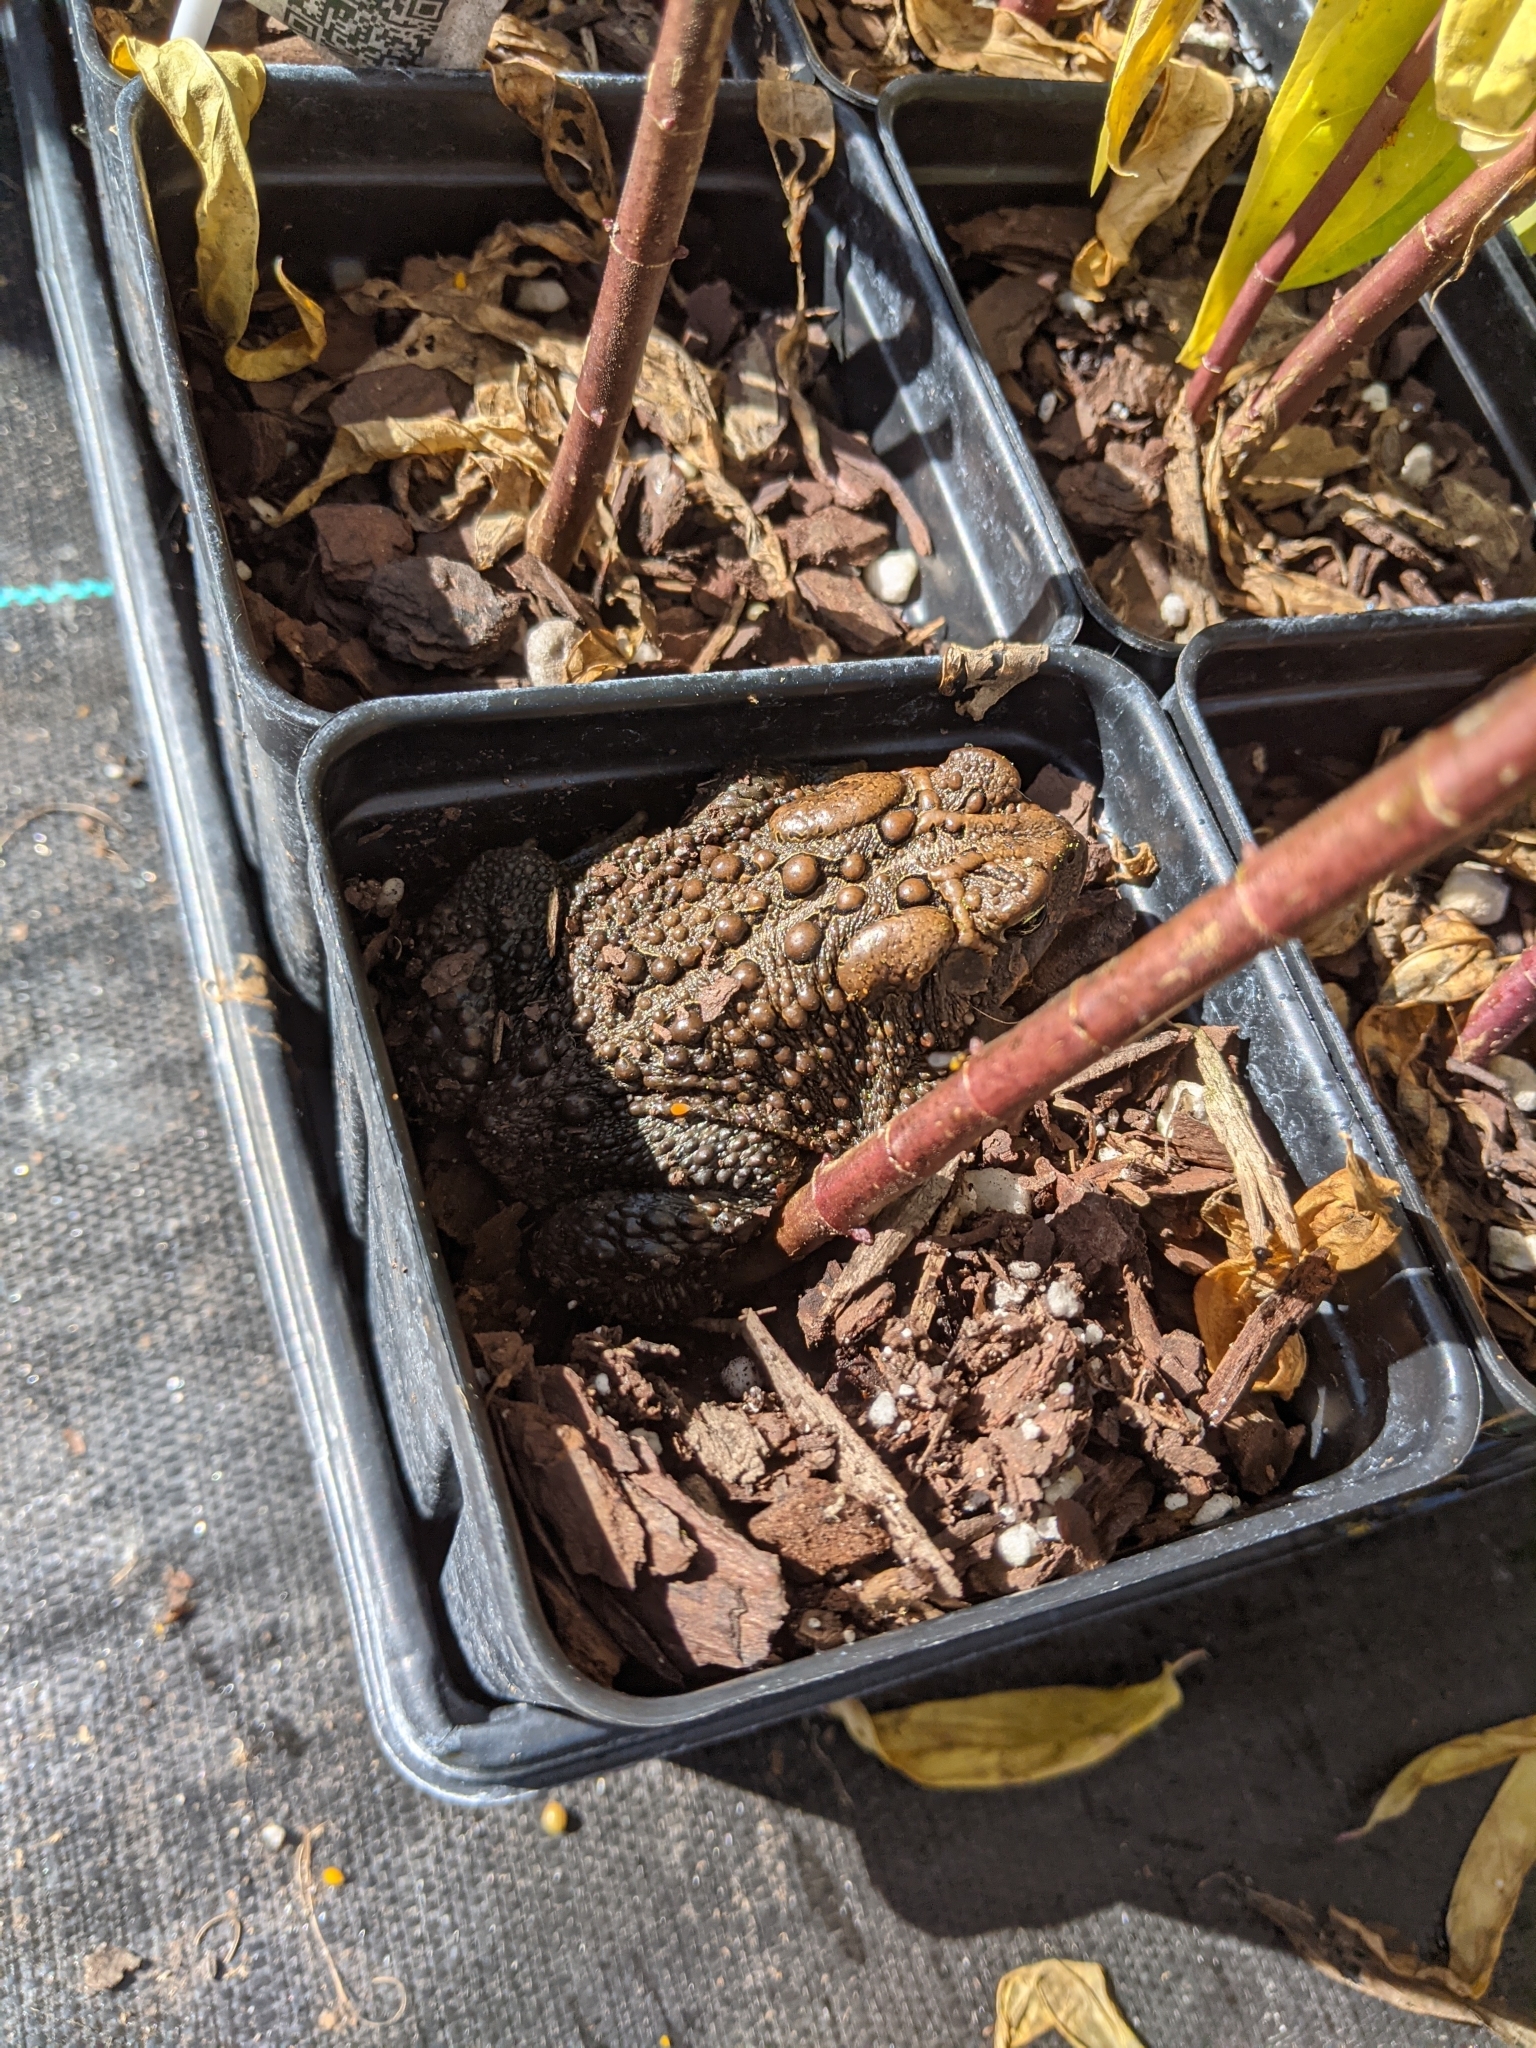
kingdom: Animalia
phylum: Chordata
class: Amphibia
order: Anura
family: Bufonidae
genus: Anaxyrus
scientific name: Anaxyrus americanus
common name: American toad
